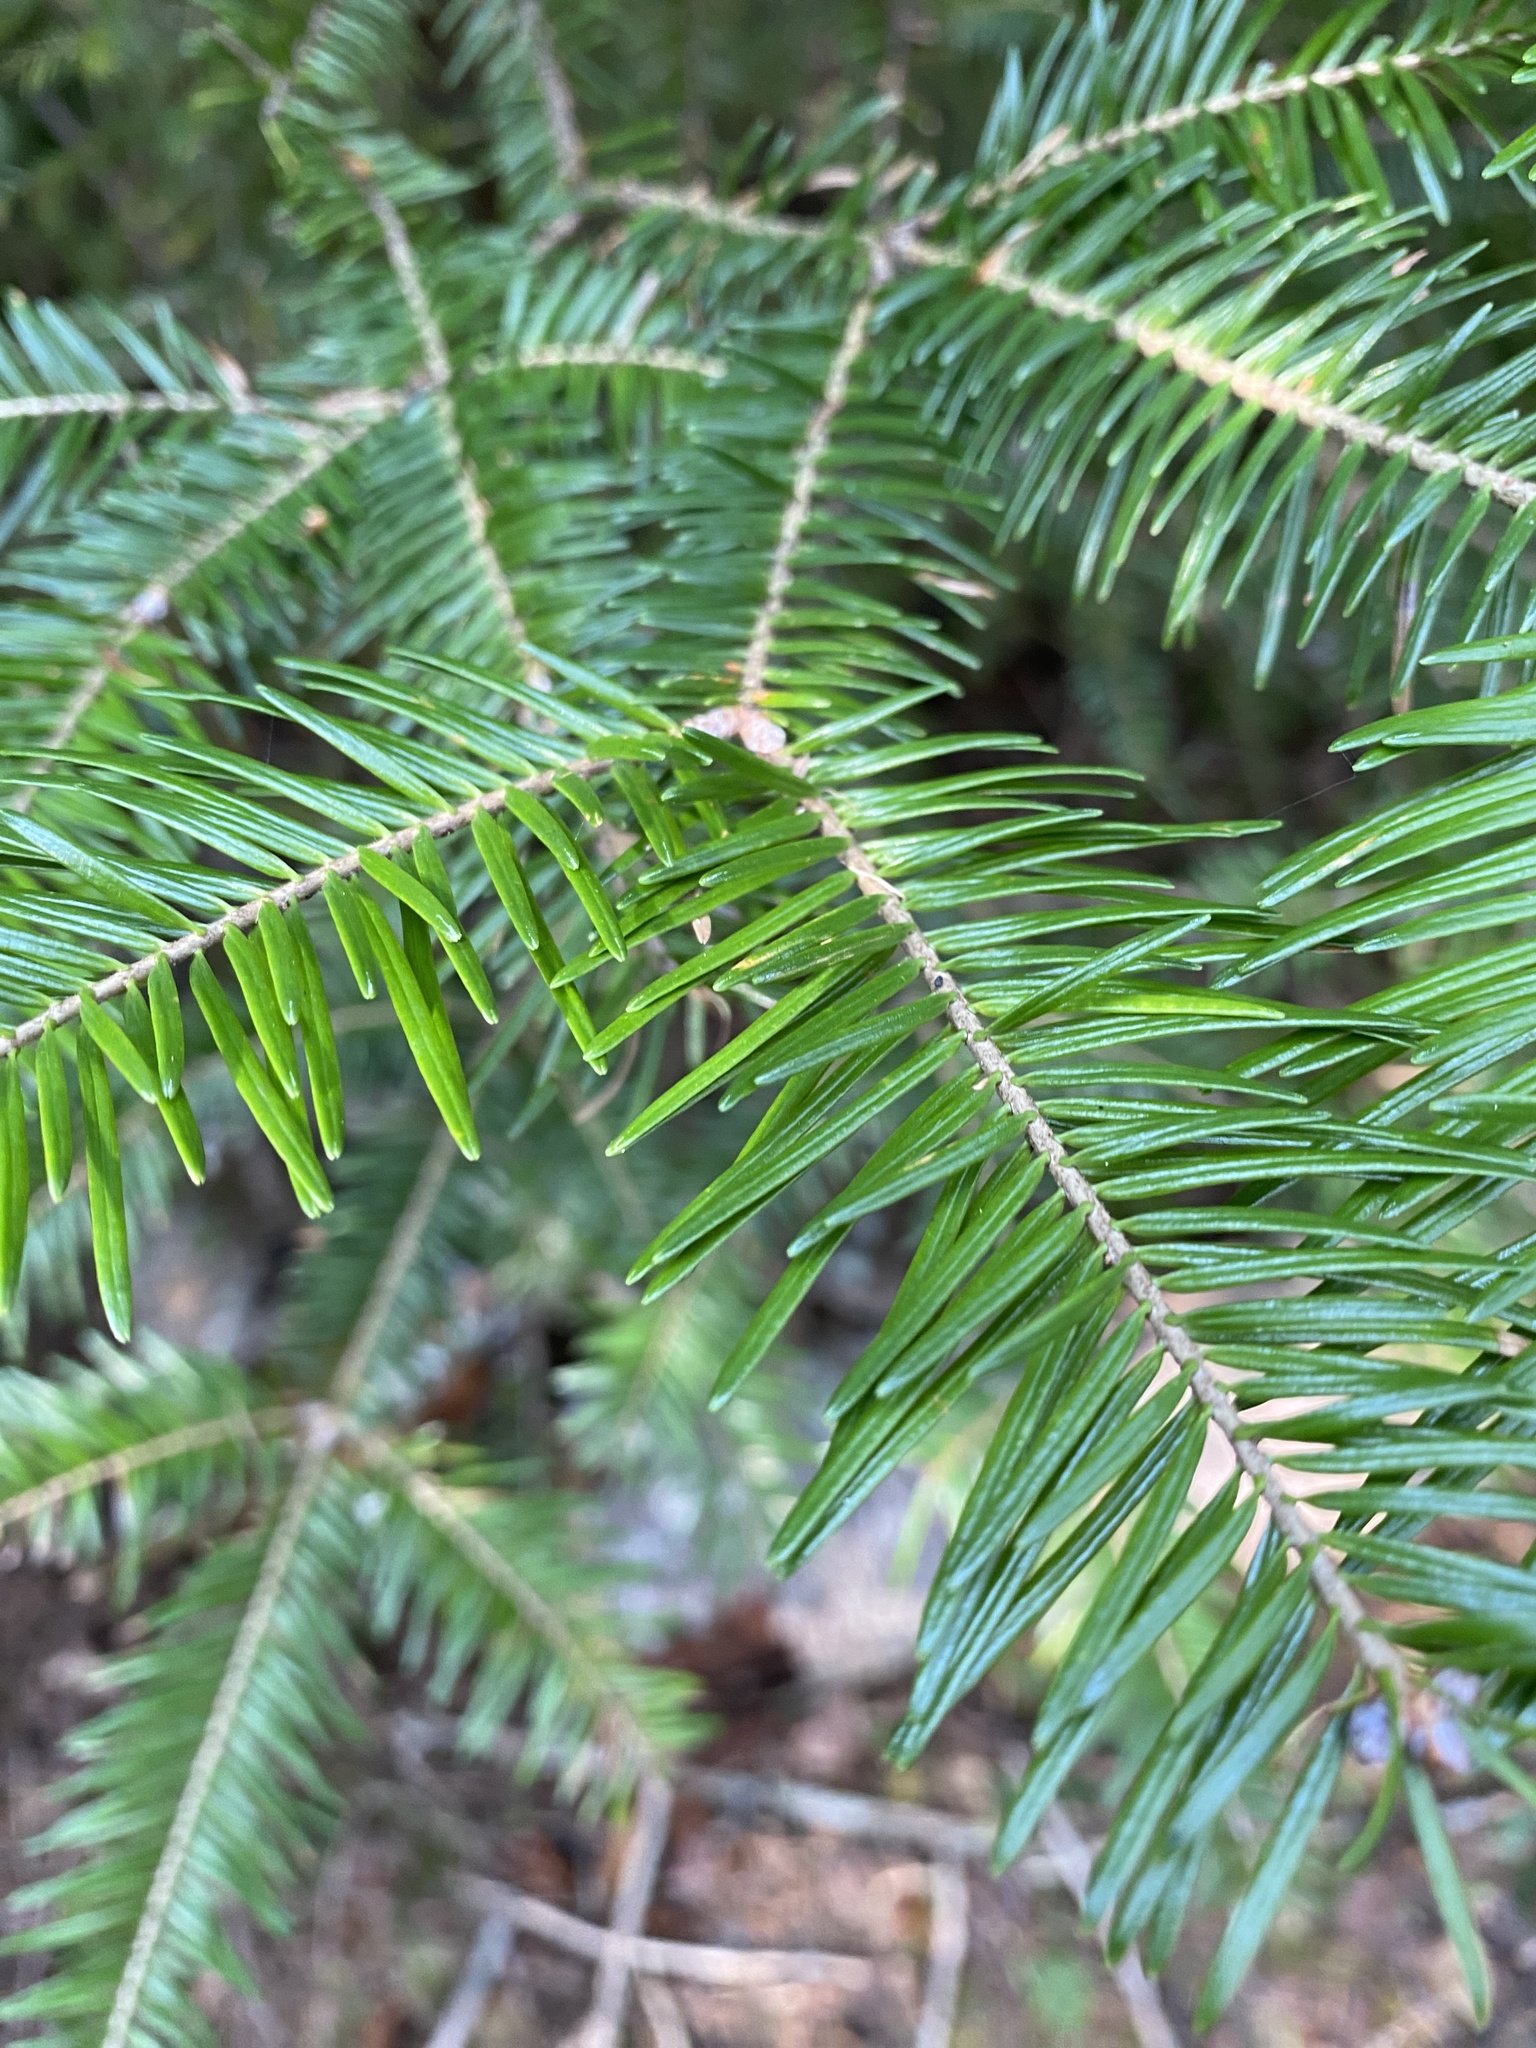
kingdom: Plantae
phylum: Tracheophyta
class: Pinopsida
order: Pinales
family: Pinaceae
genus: Abies
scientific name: Abies balsamea
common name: Balsam fir
